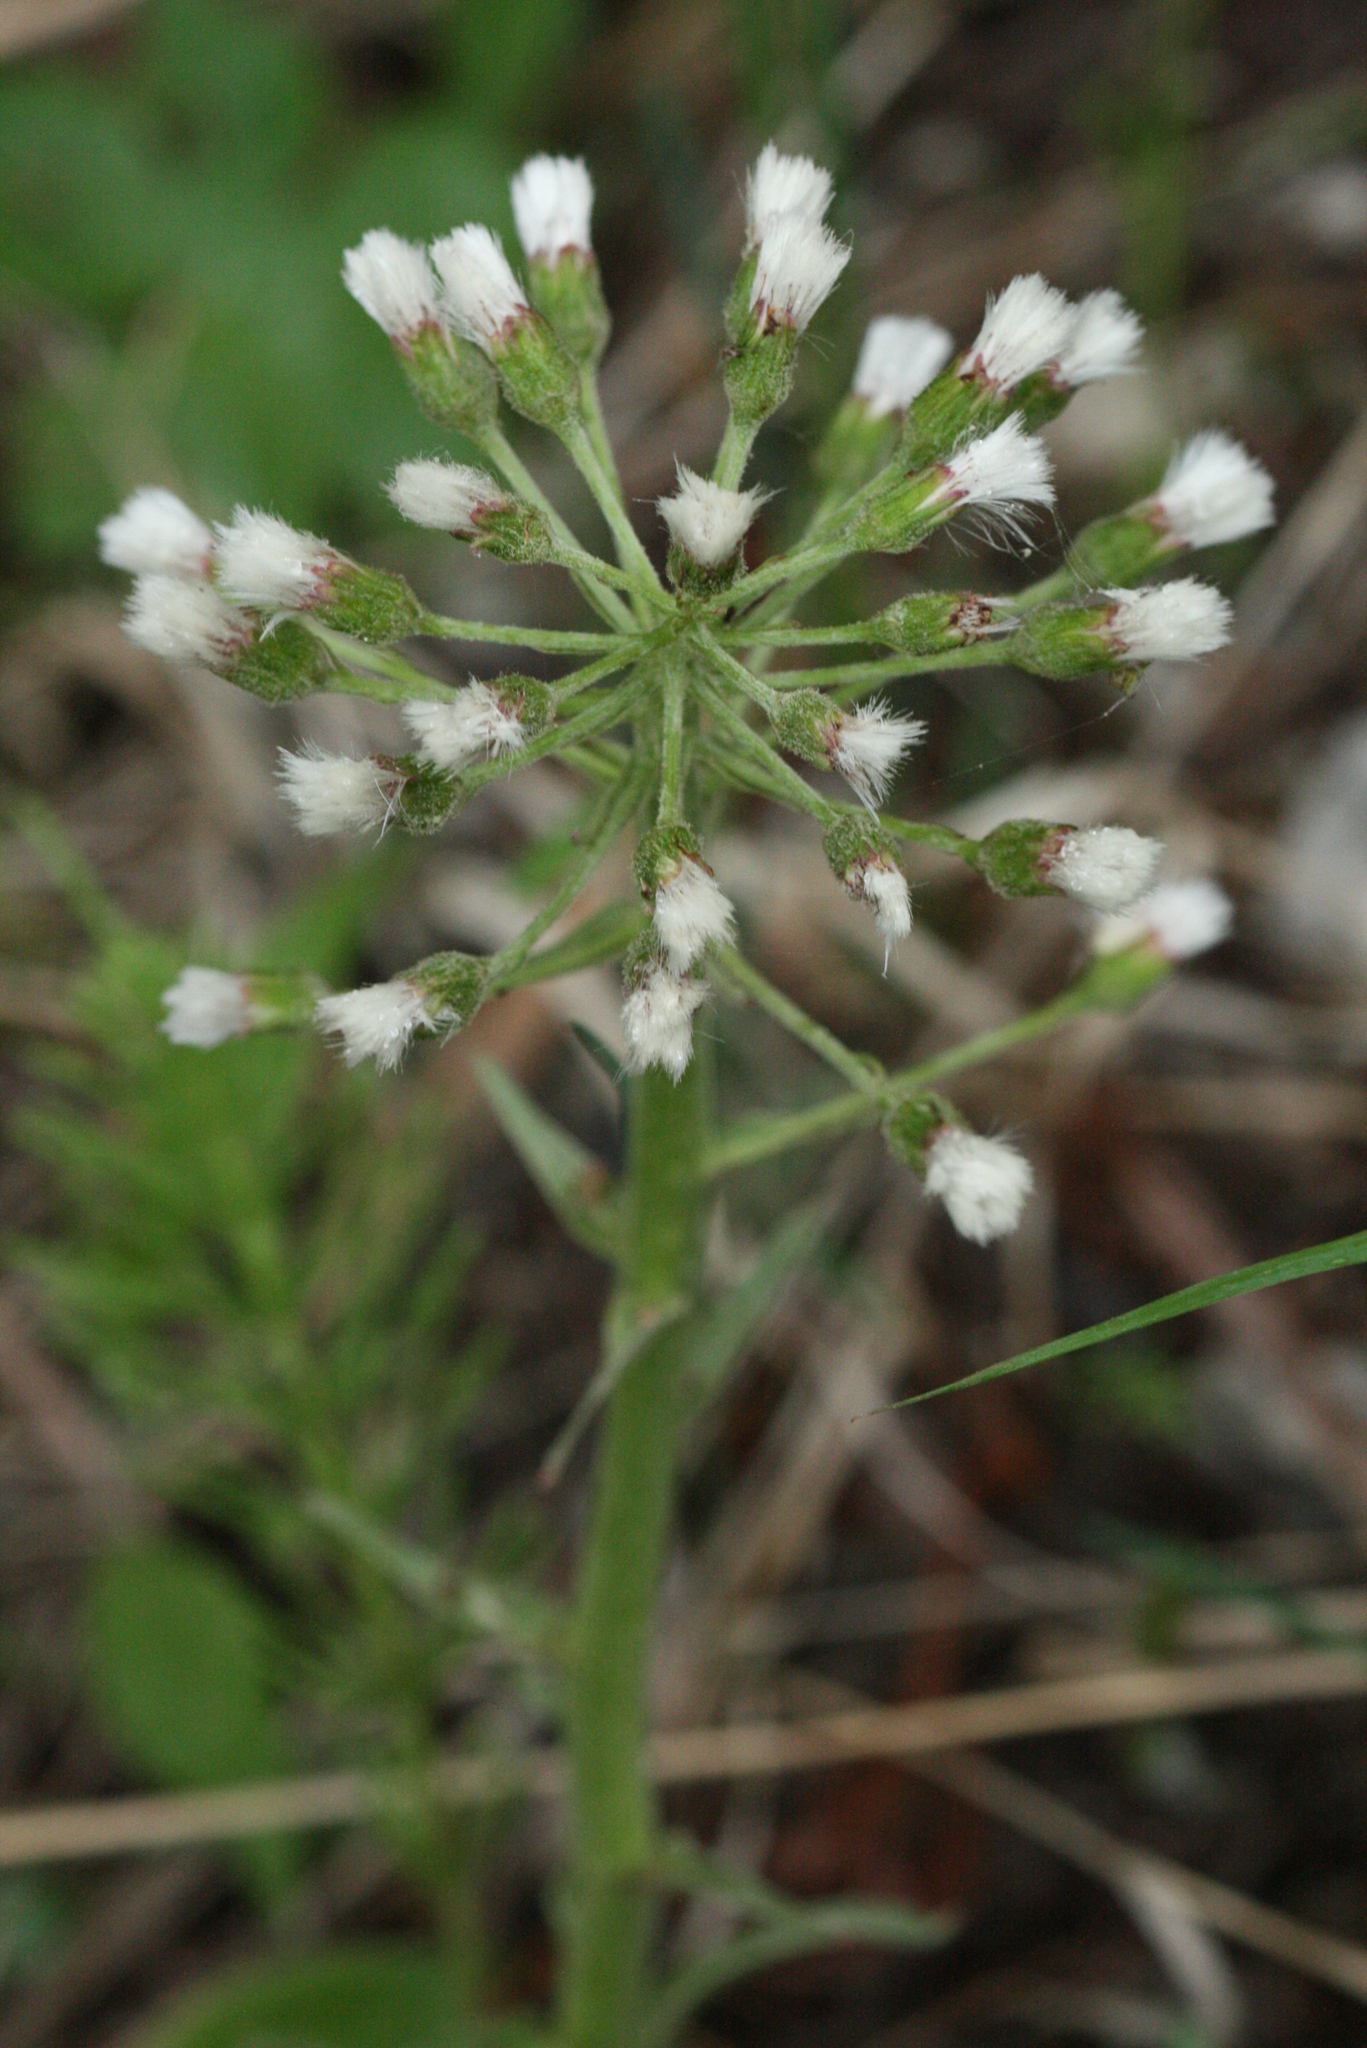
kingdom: Plantae
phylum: Tracheophyta
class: Magnoliopsida
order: Asterales
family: Asteraceae
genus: Petasites
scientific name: Petasites frigidus
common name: Arctic butterbur
